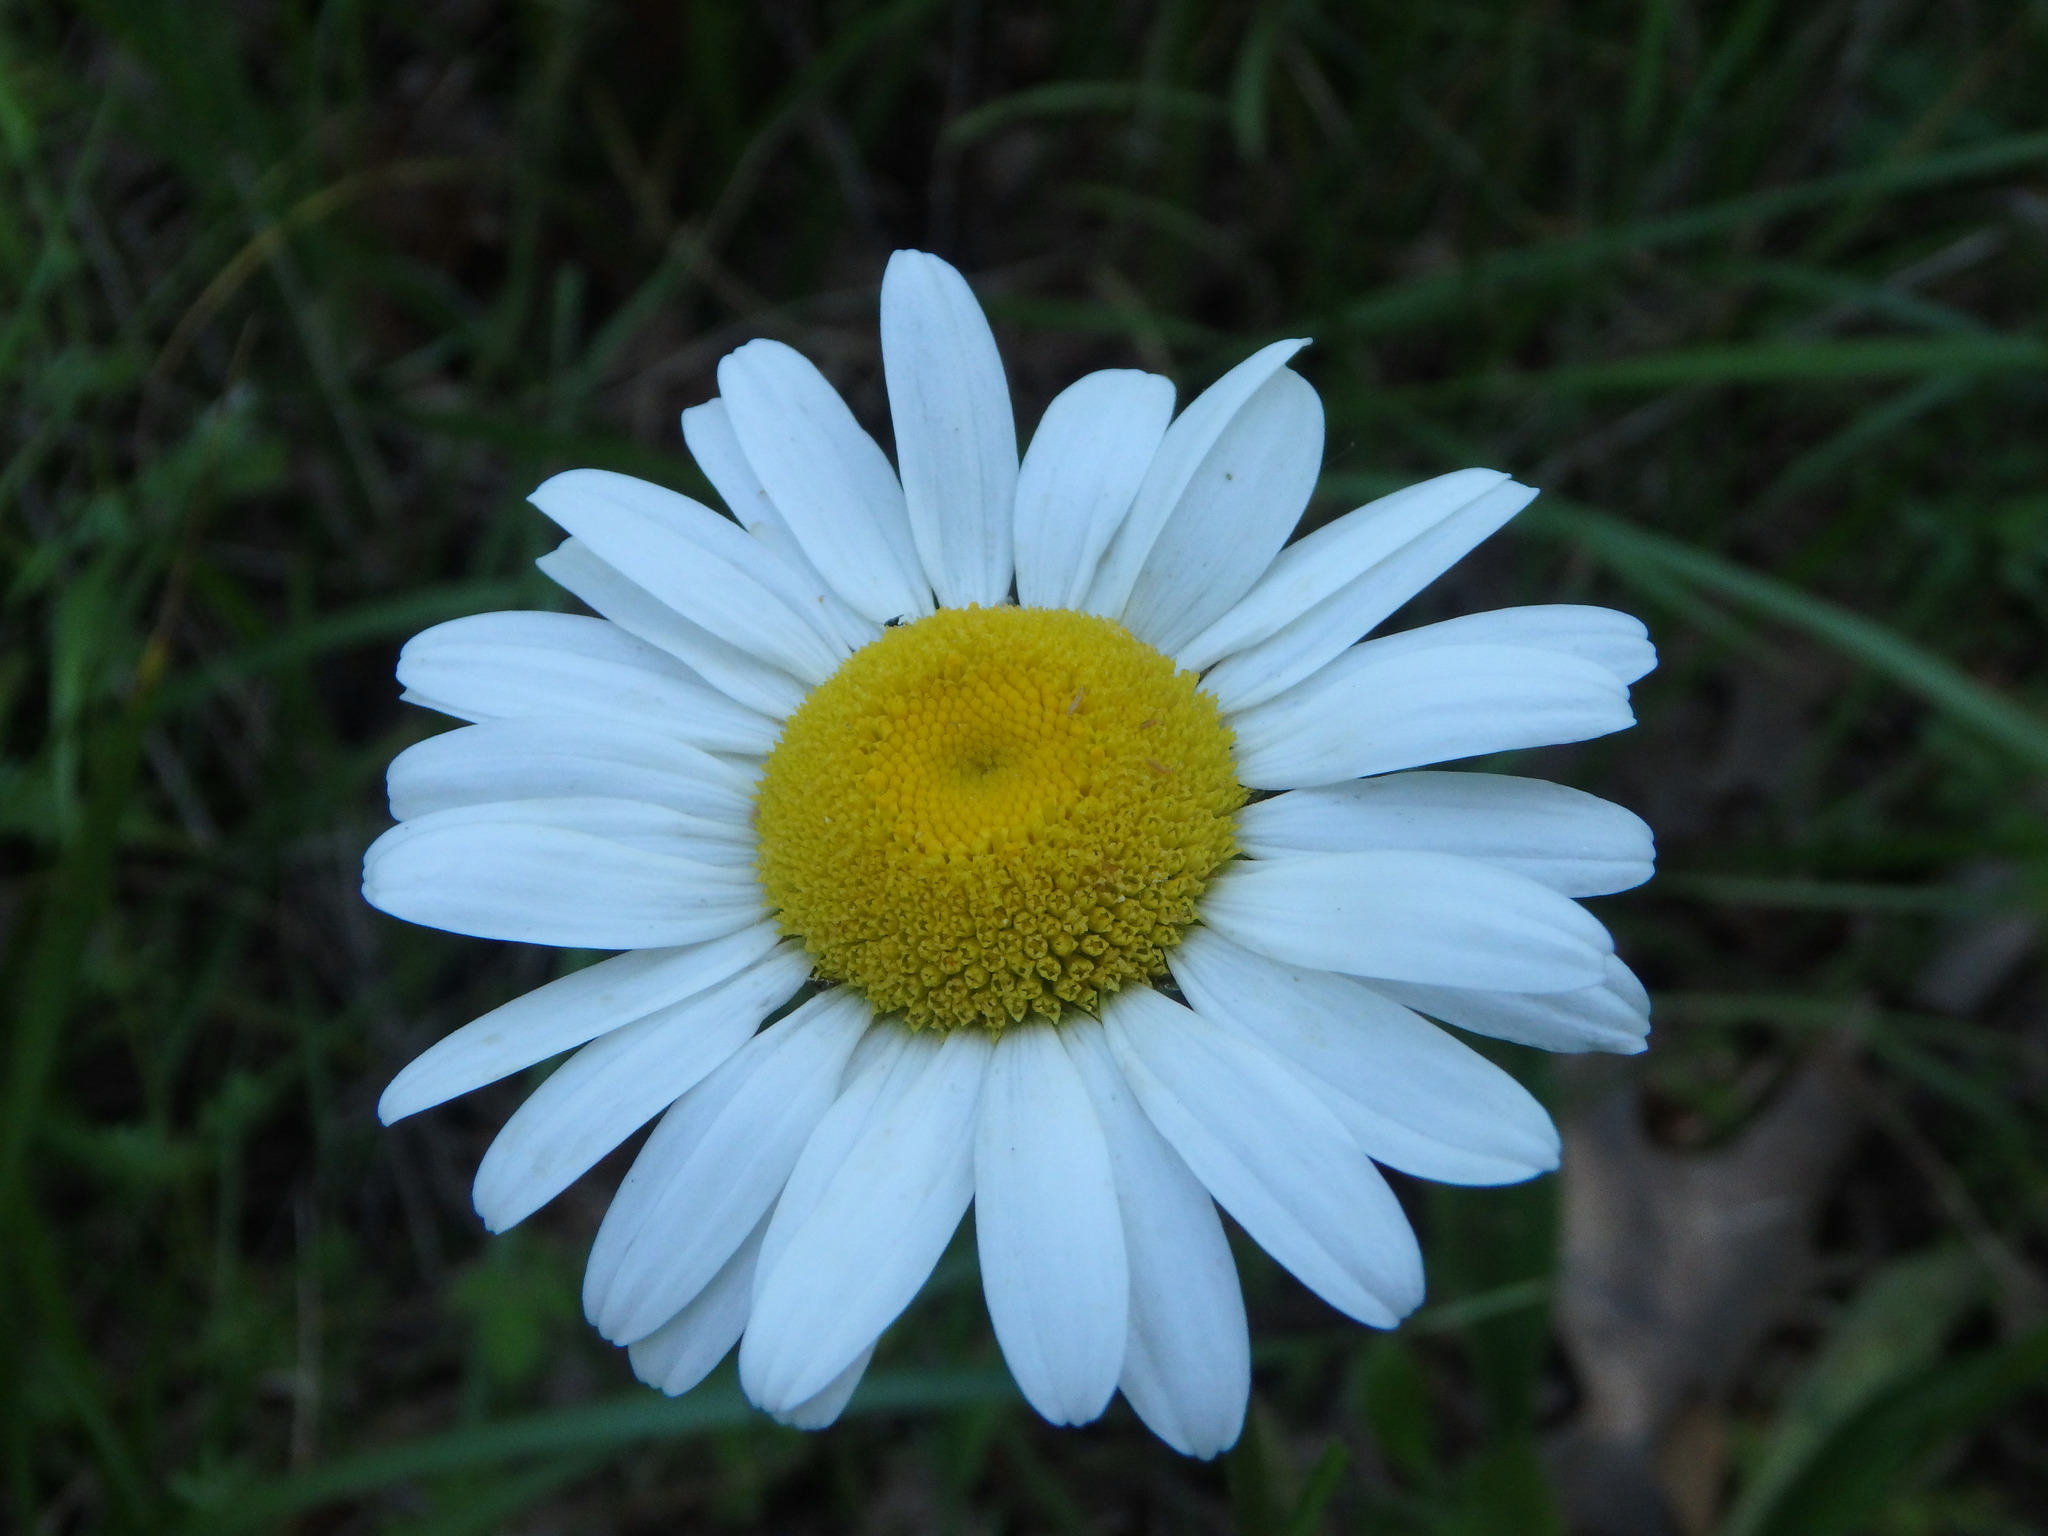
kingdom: Plantae
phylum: Tracheophyta
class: Magnoliopsida
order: Asterales
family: Asteraceae
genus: Leucanthemum
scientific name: Leucanthemum vulgare
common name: Oxeye daisy
